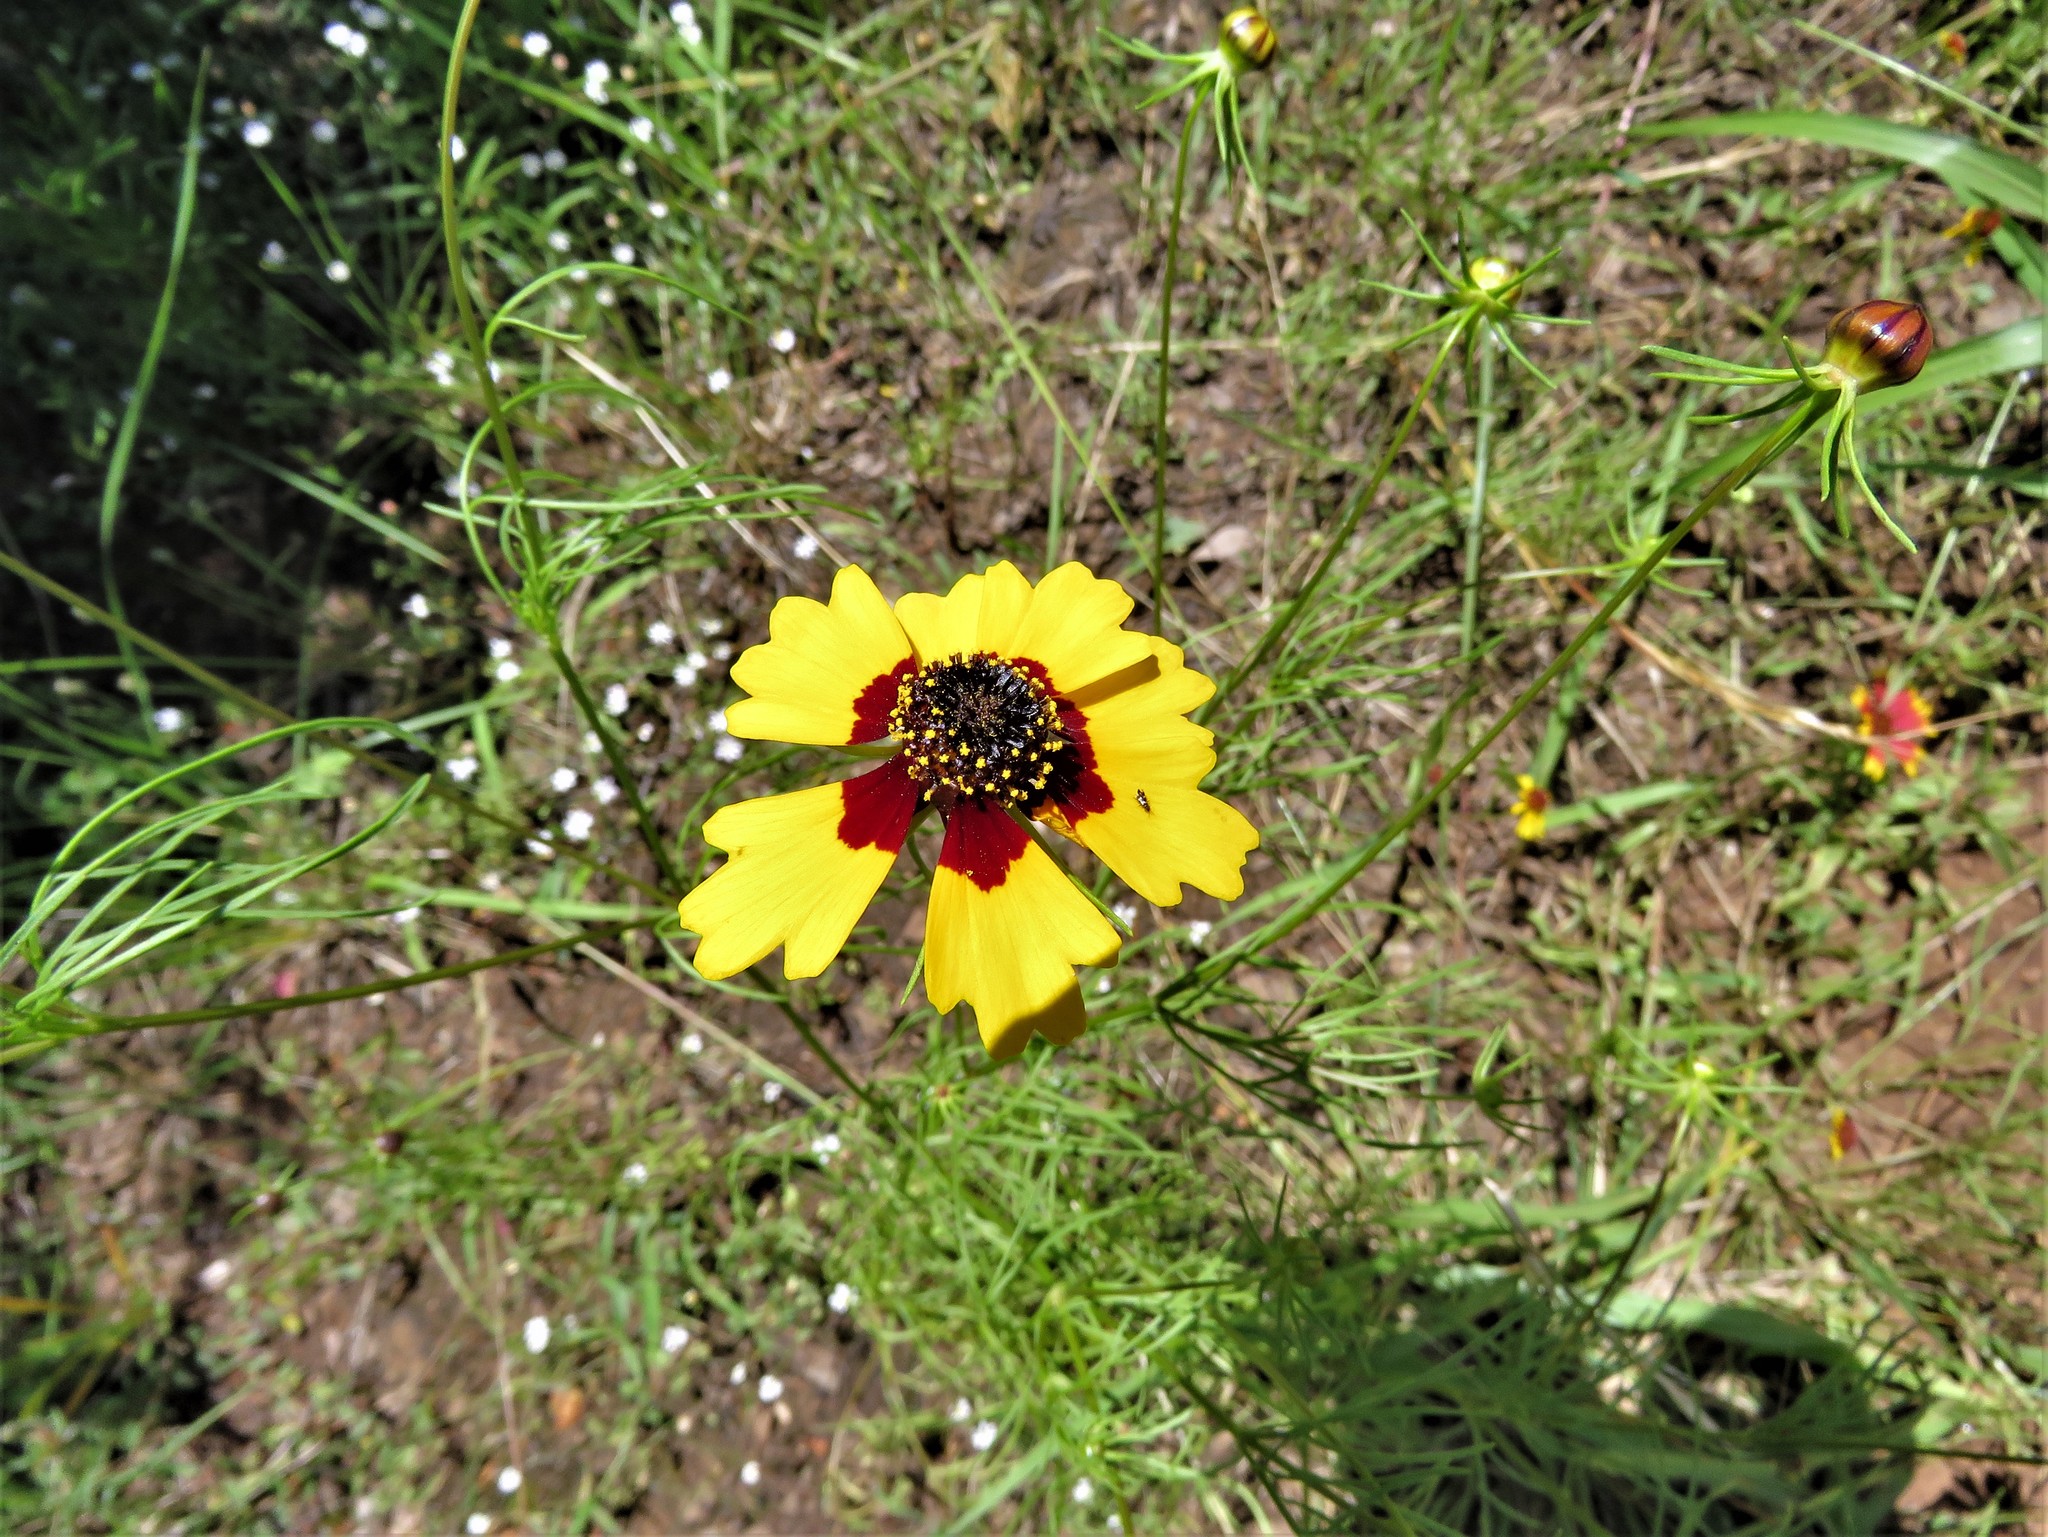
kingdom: Plantae
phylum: Tracheophyta
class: Magnoliopsida
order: Asterales
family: Asteraceae
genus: Coreopsis
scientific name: Coreopsis basalis
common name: Golden-mane coreopsis
